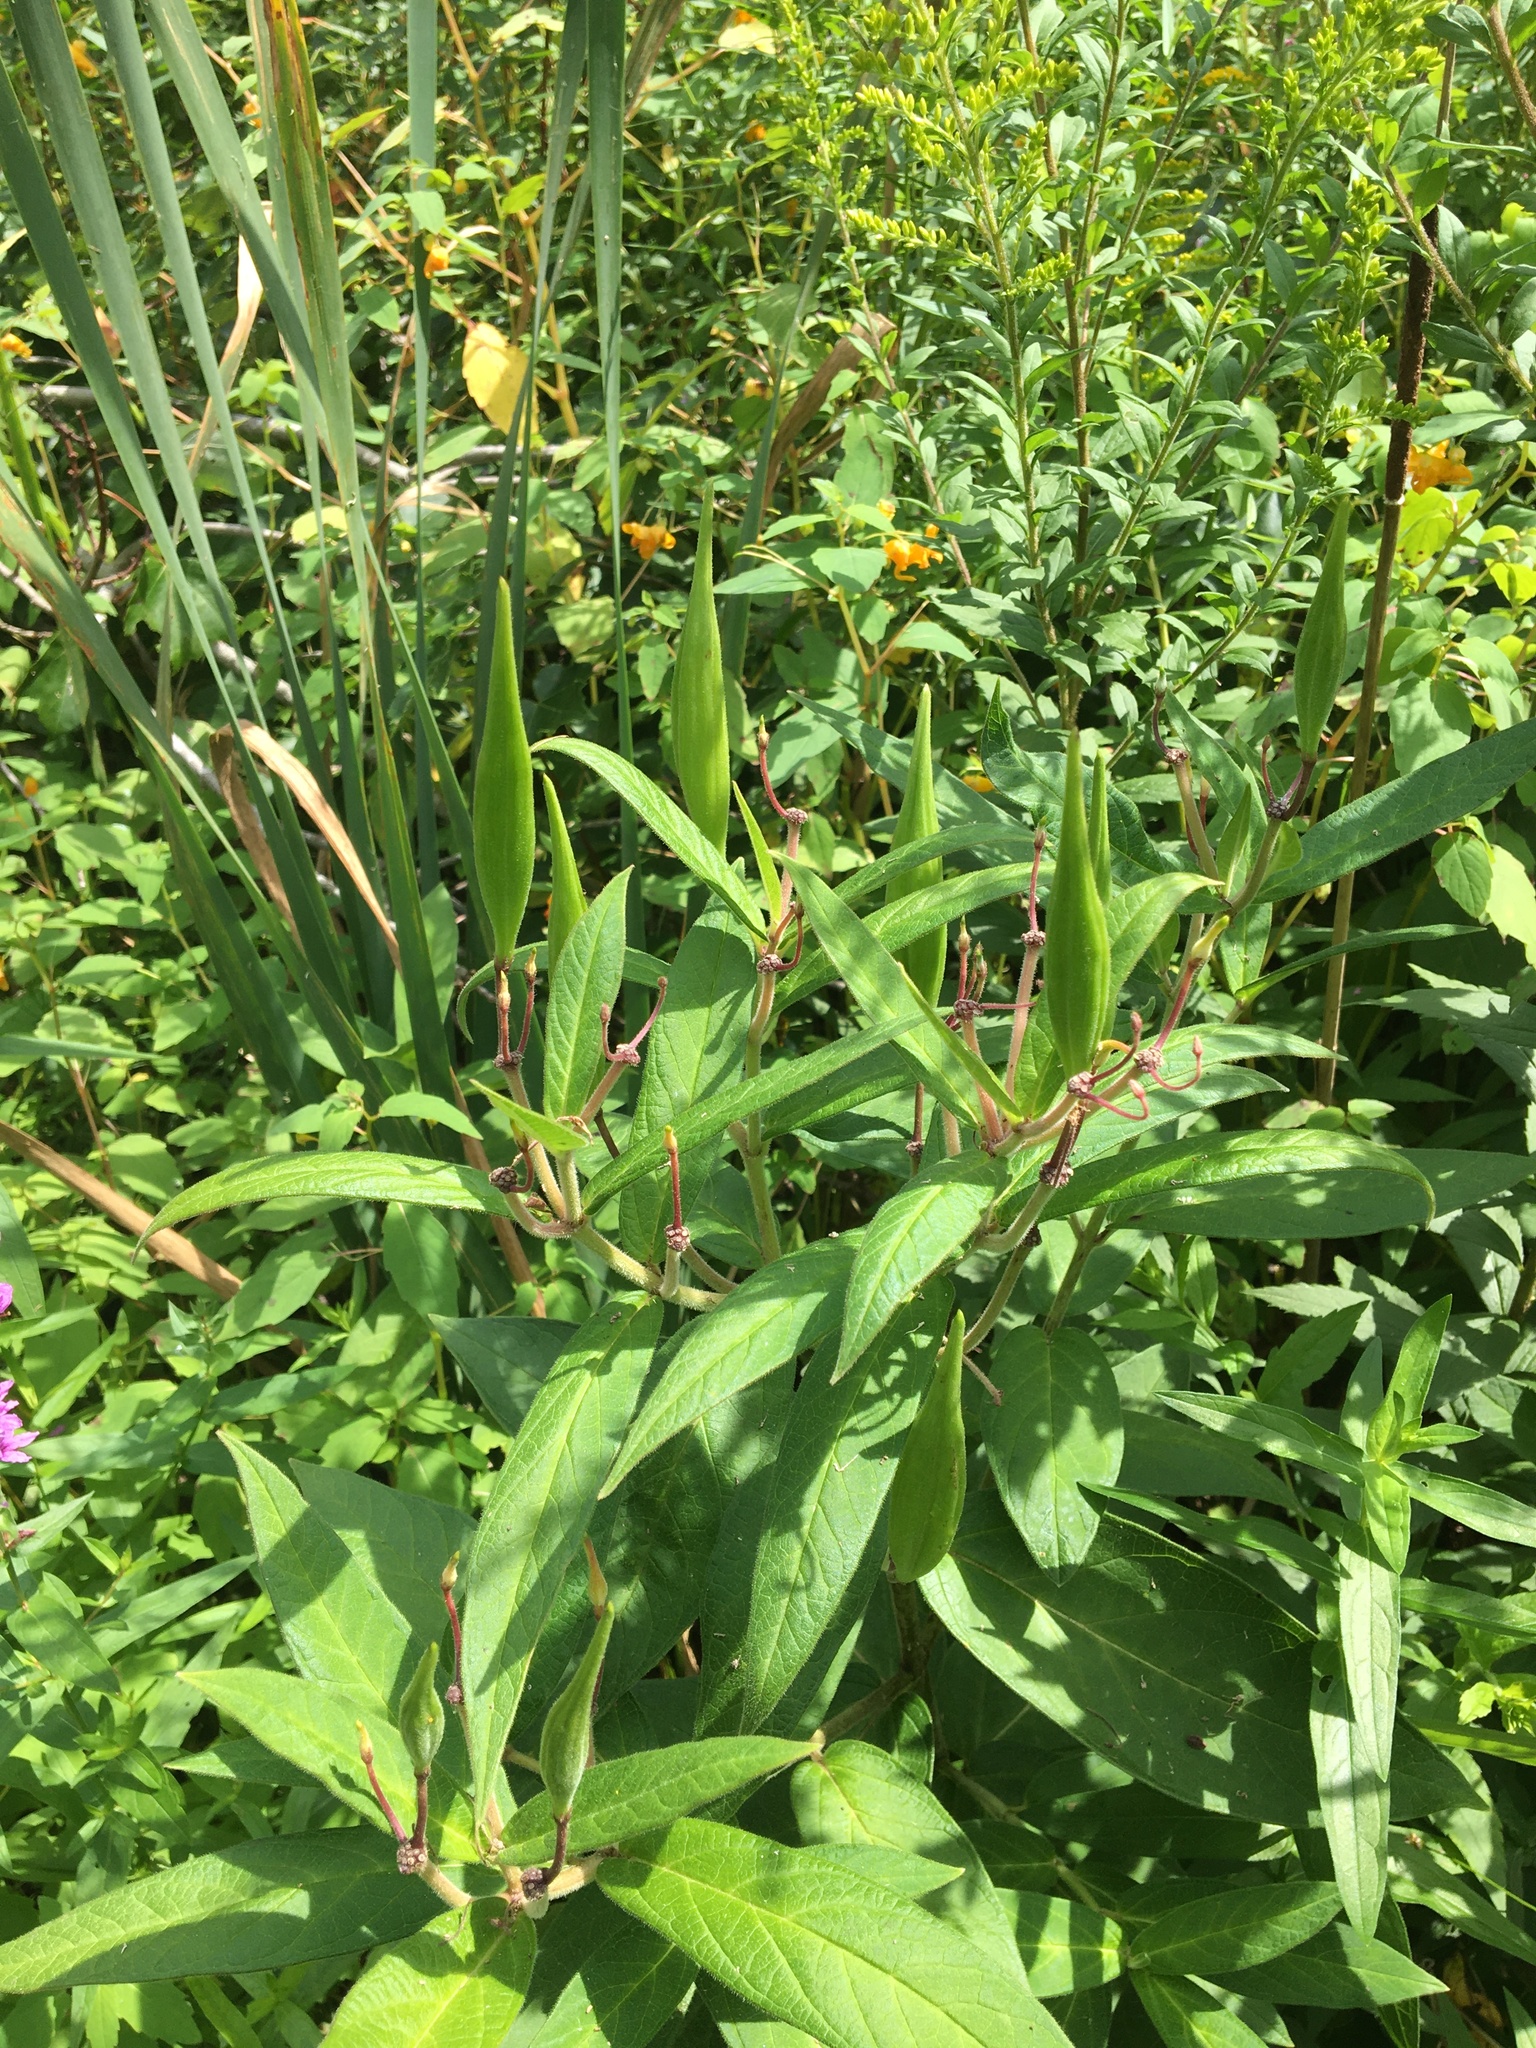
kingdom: Plantae
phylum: Tracheophyta
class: Magnoliopsida
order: Gentianales
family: Apocynaceae
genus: Asclepias
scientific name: Asclepias incarnata
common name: Swamp milkweed
